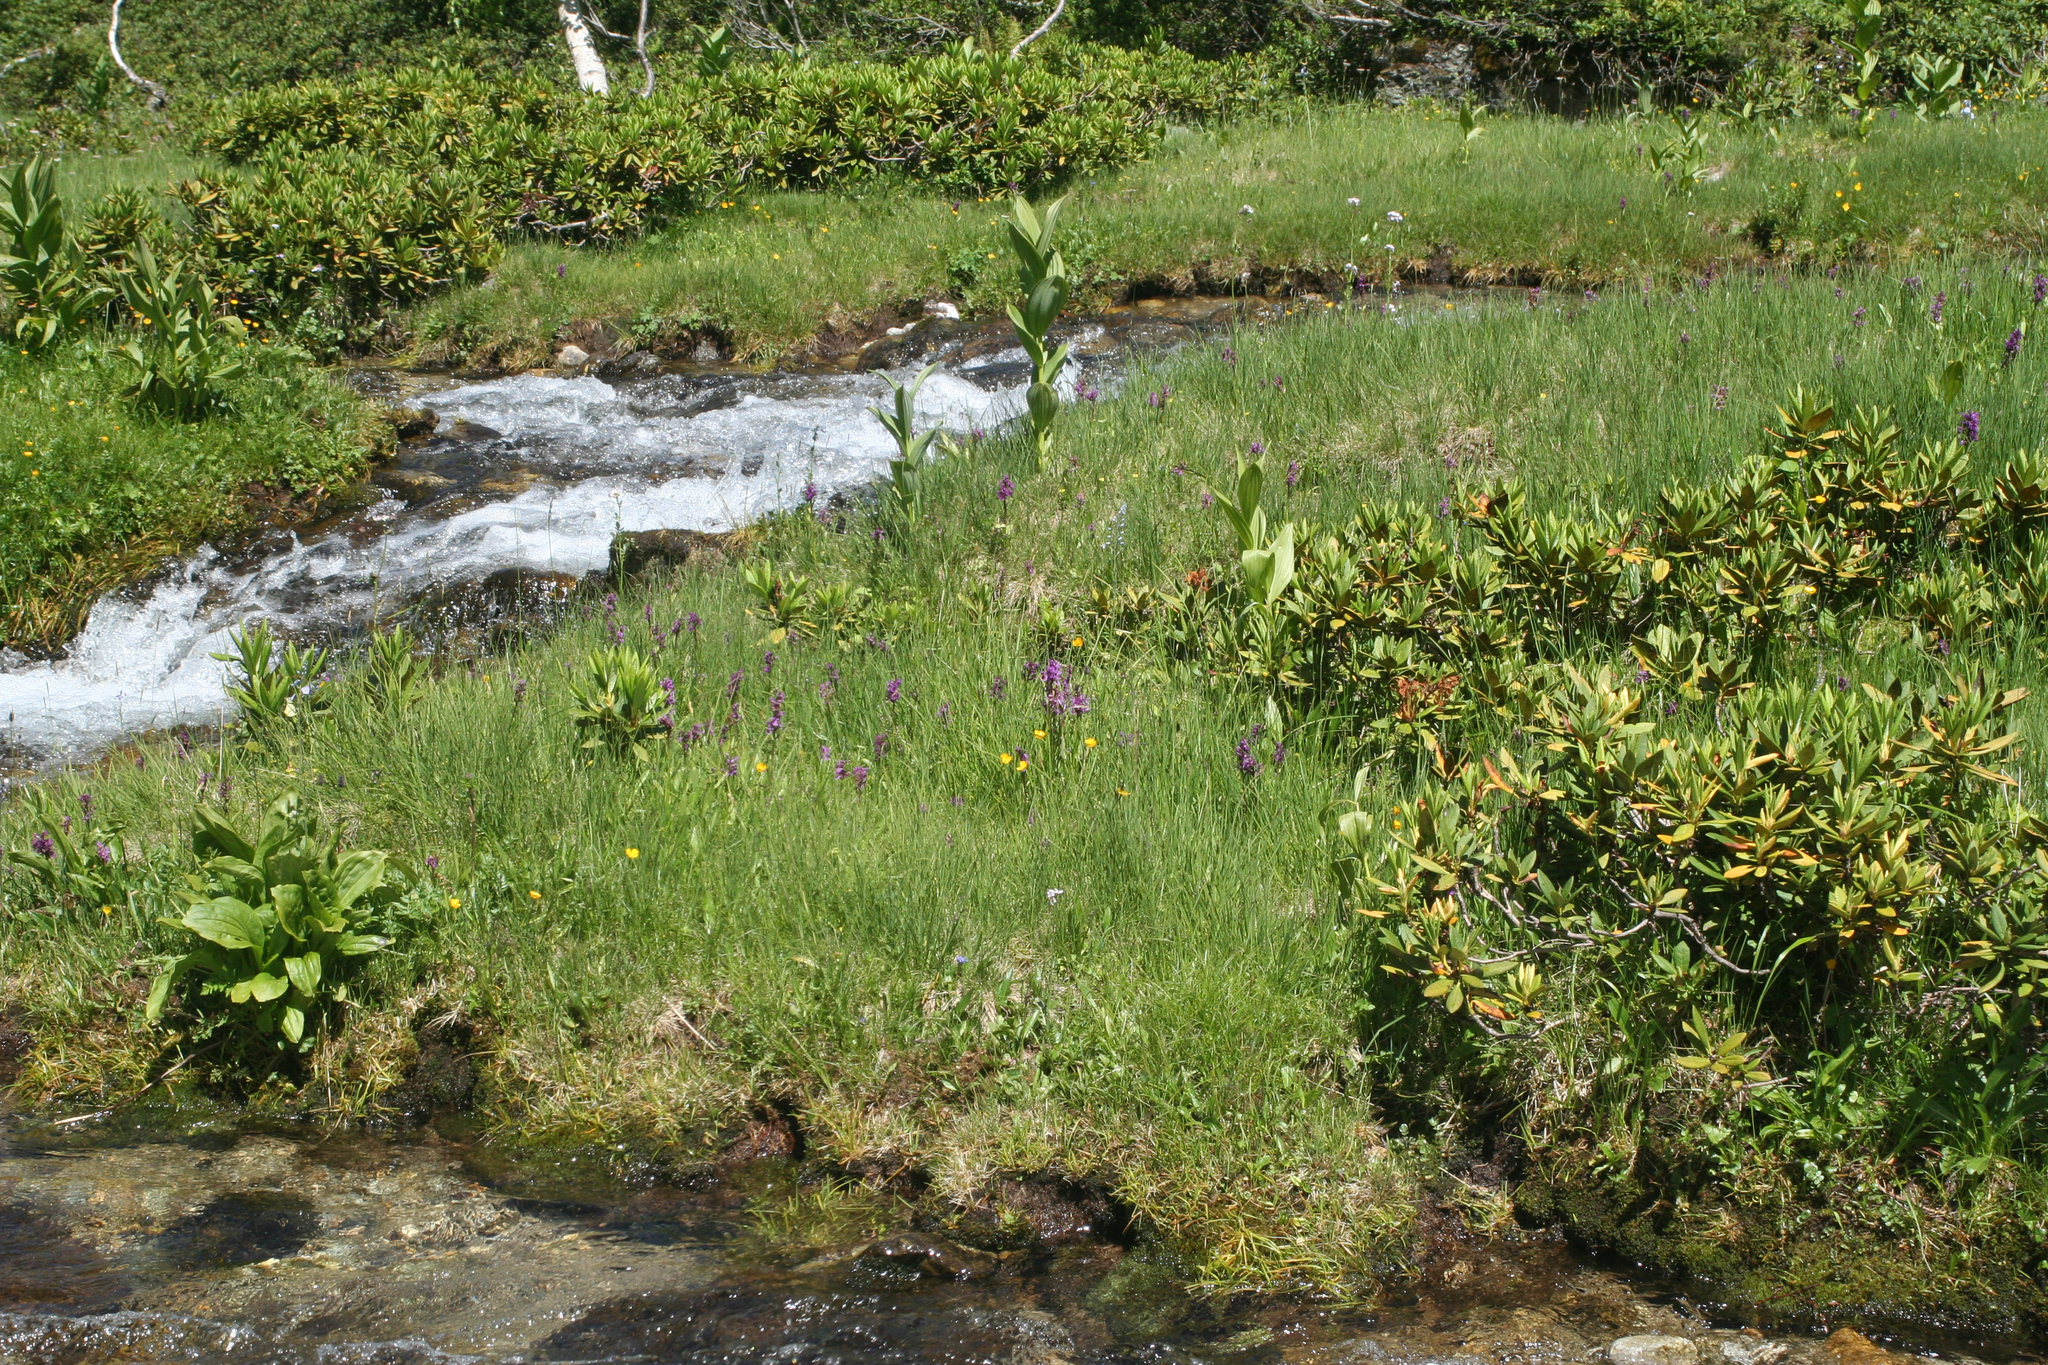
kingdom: Plantae
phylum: Tracheophyta
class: Magnoliopsida
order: Ericales
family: Ericaceae
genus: Rhododendron
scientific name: Rhododendron caucasicum
